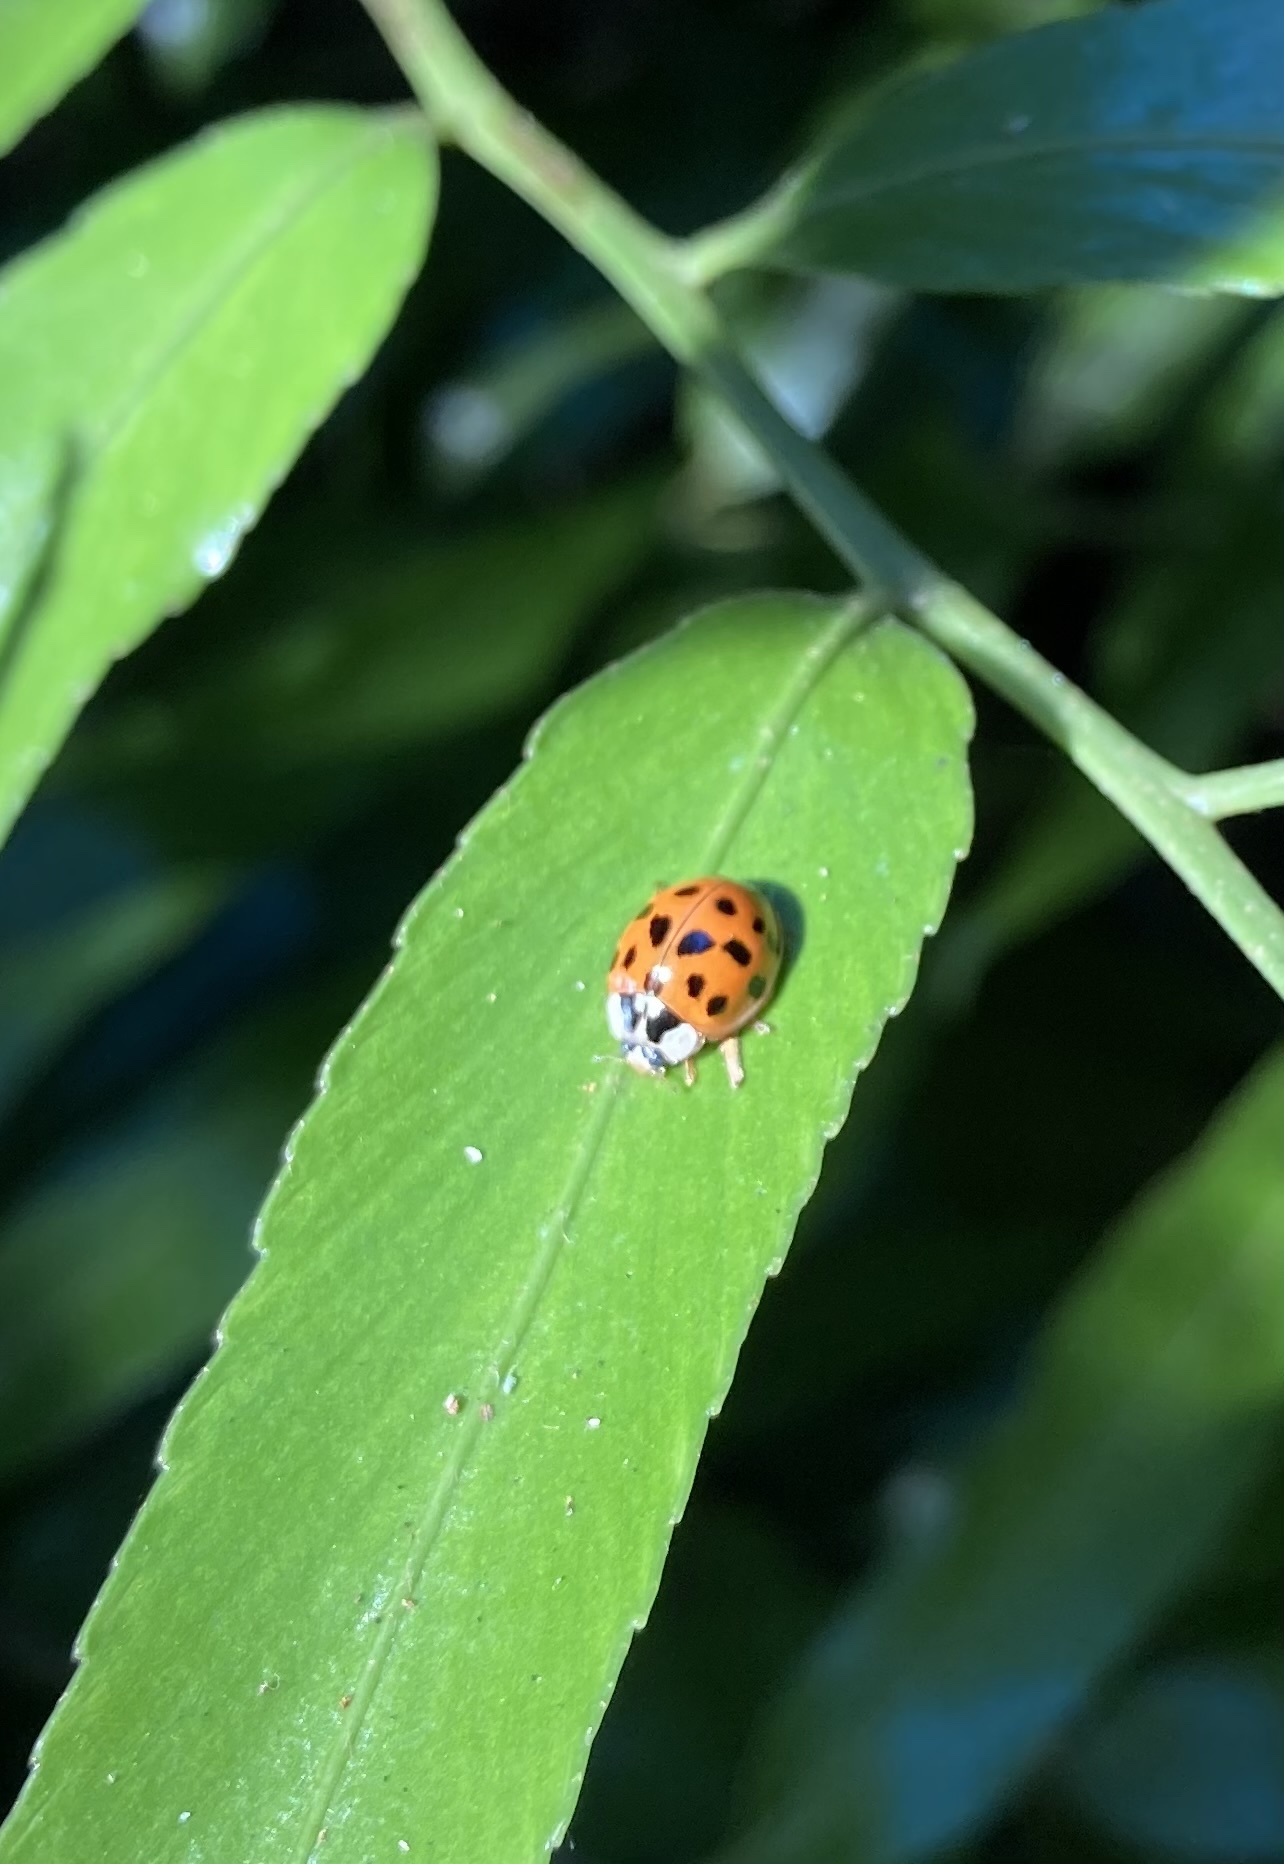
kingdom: Animalia
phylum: Arthropoda
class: Insecta
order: Coleoptera
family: Coccinellidae
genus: Harmonia
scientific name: Harmonia axyridis
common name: Harlequin ladybird
